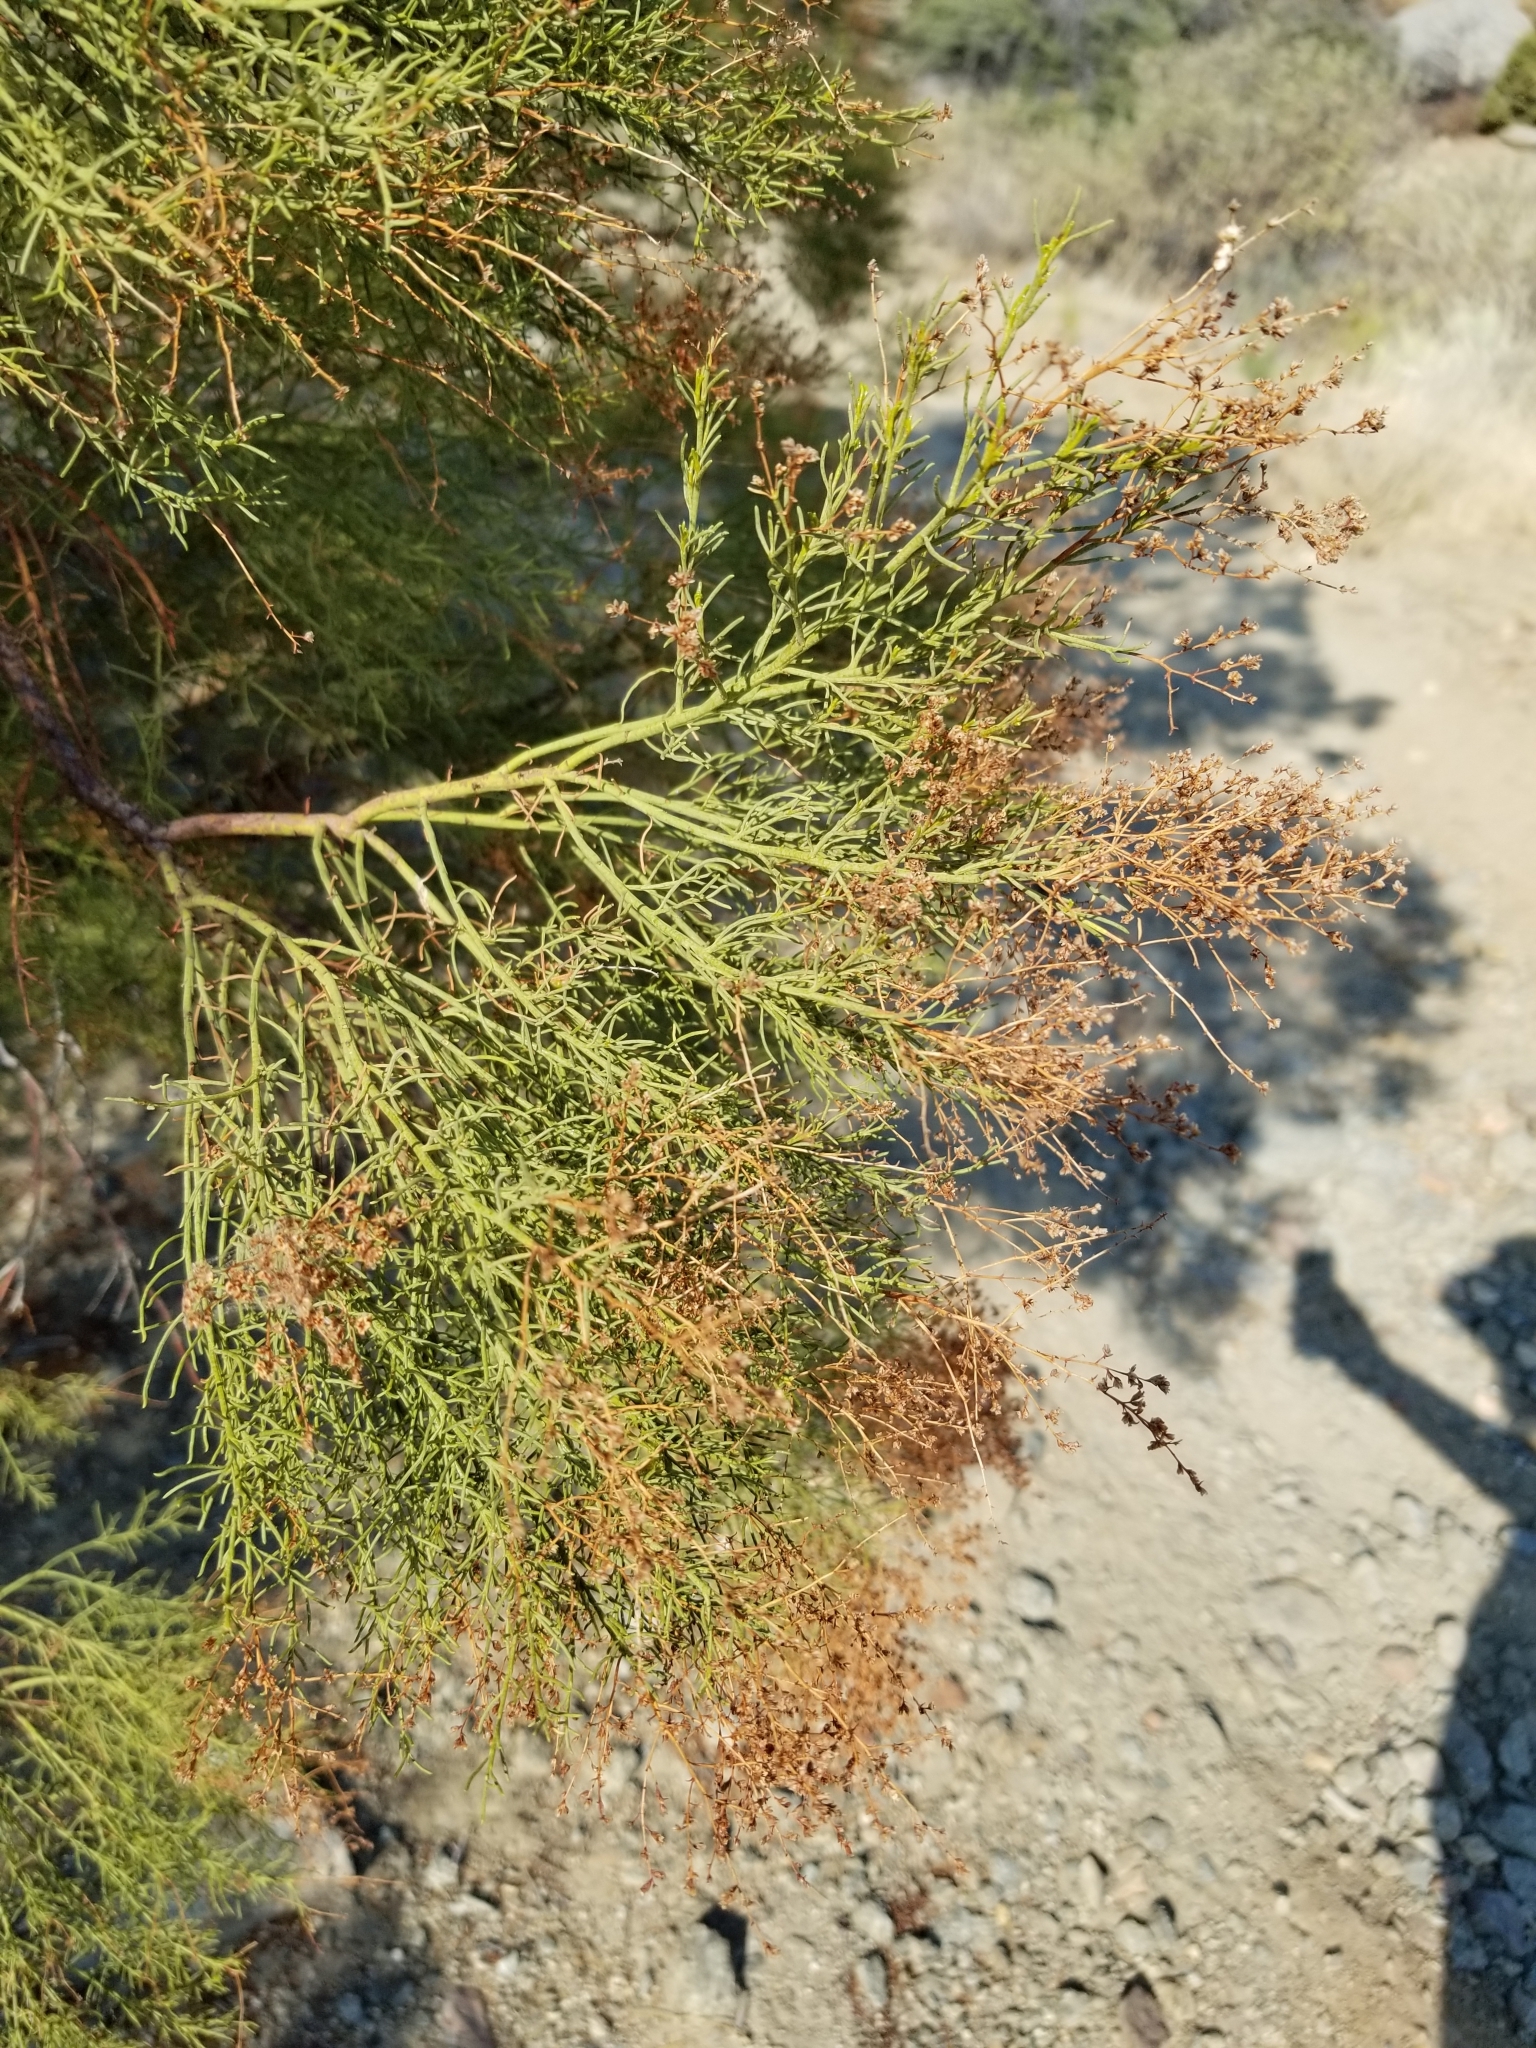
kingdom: Plantae
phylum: Tracheophyta
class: Magnoliopsida
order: Rosales
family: Rosaceae
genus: Adenostoma
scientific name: Adenostoma sparsifolium
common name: Red shank
